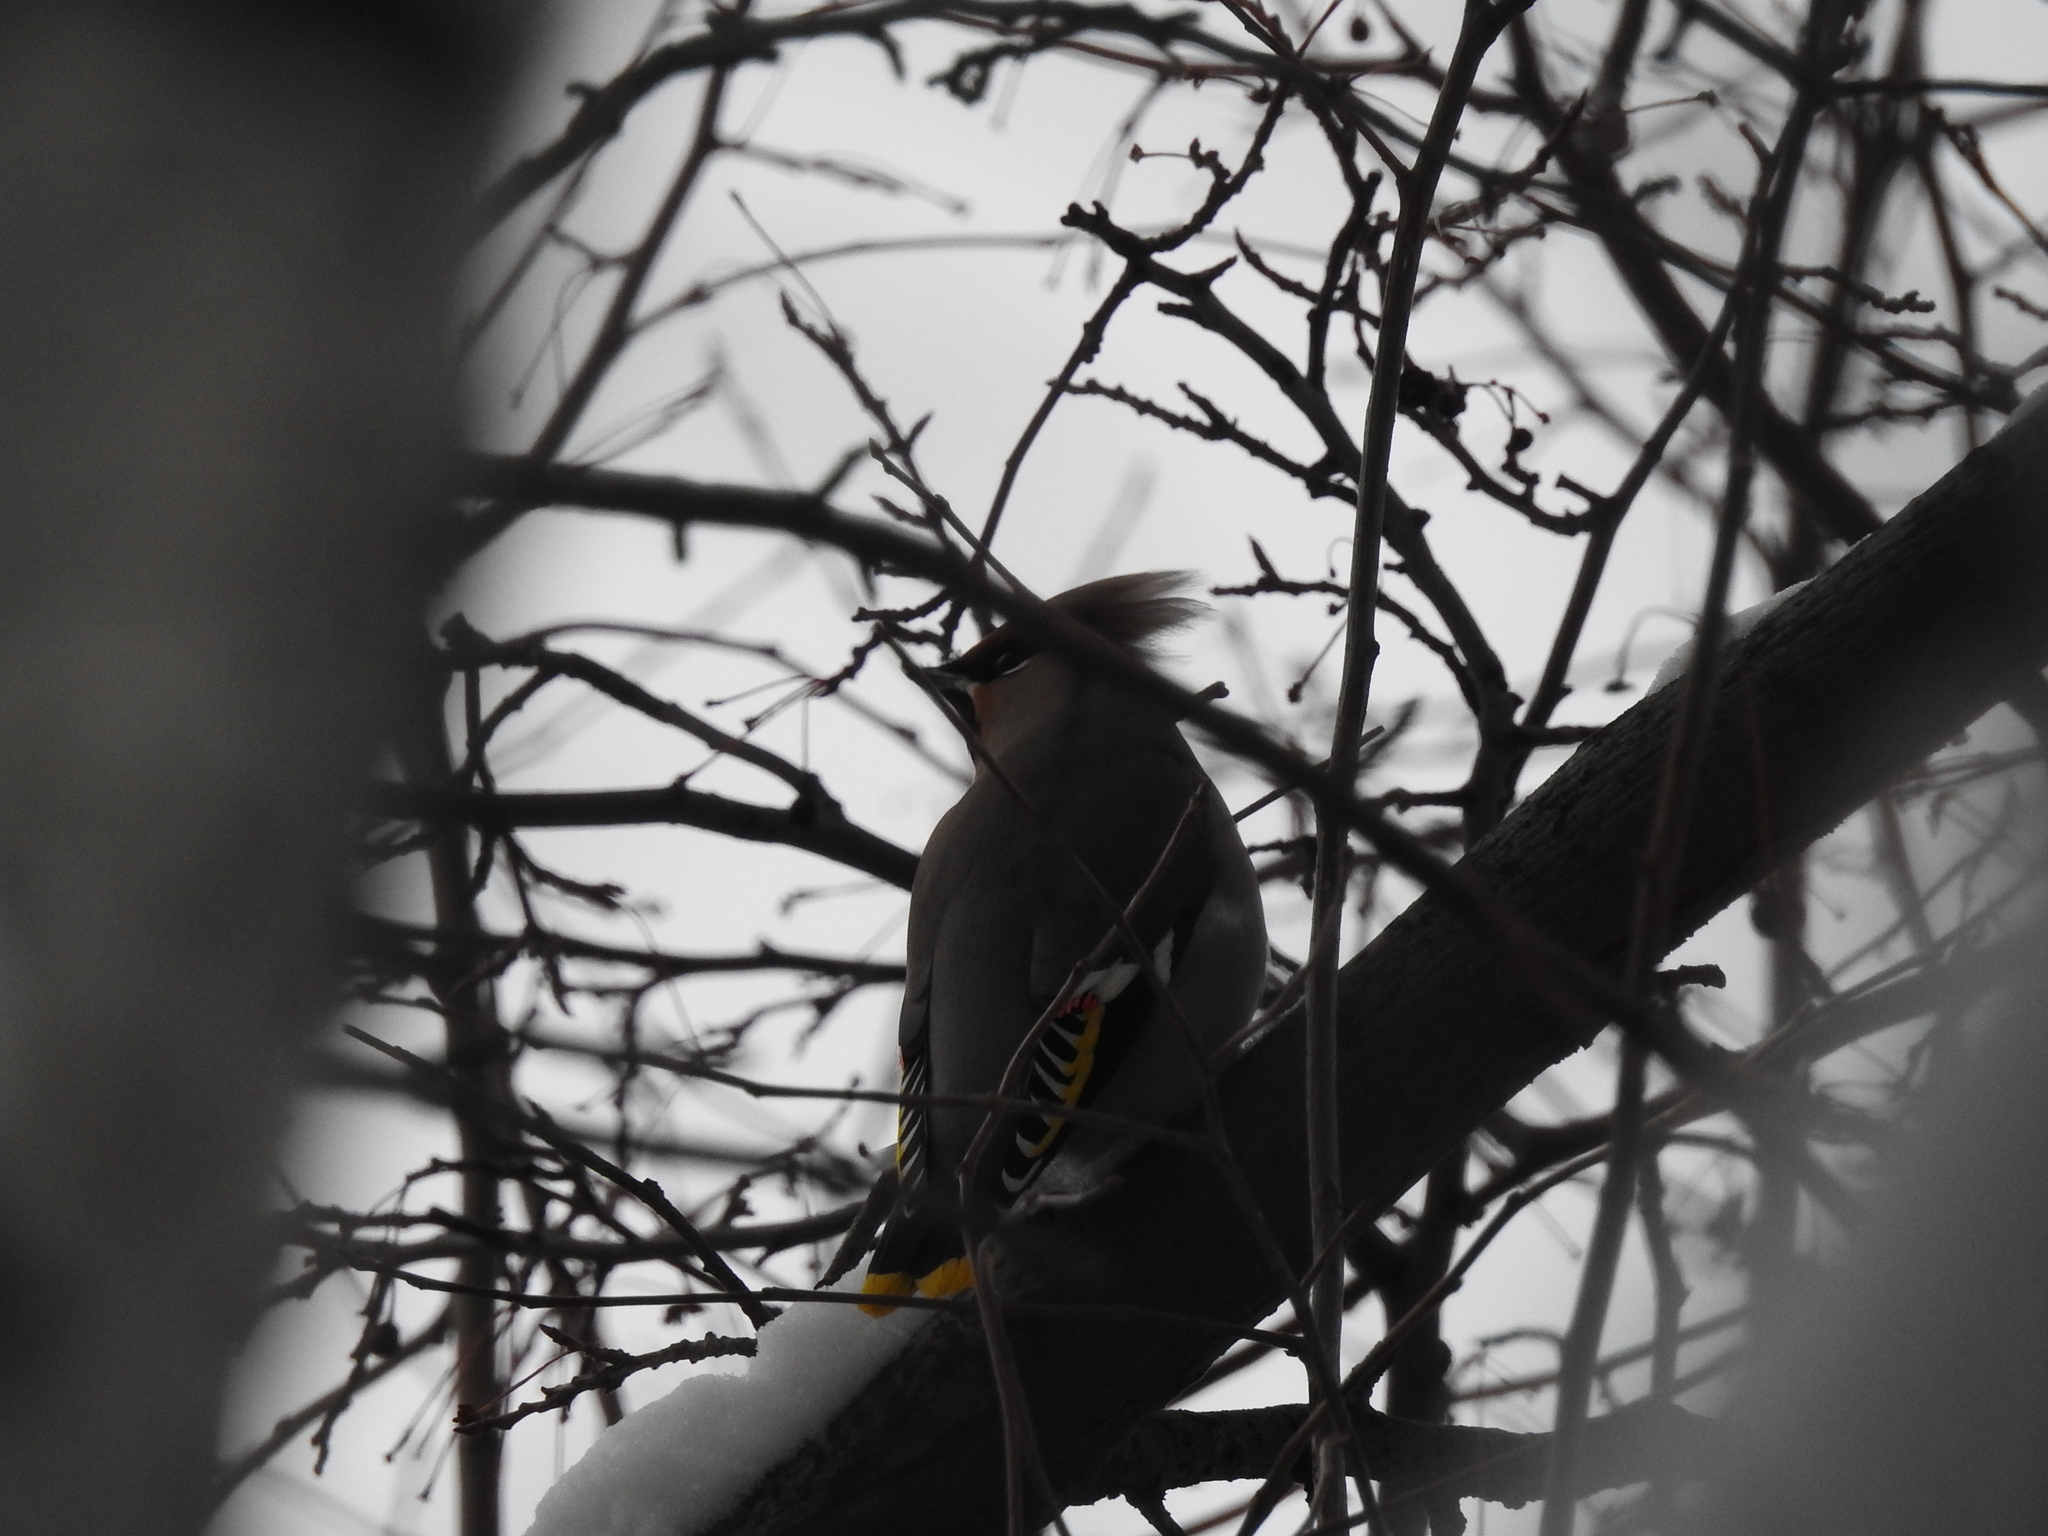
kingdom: Animalia
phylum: Chordata
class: Aves
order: Passeriformes
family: Bombycillidae
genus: Bombycilla
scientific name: Bombycilla garrulus
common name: Bohemian waxwing
